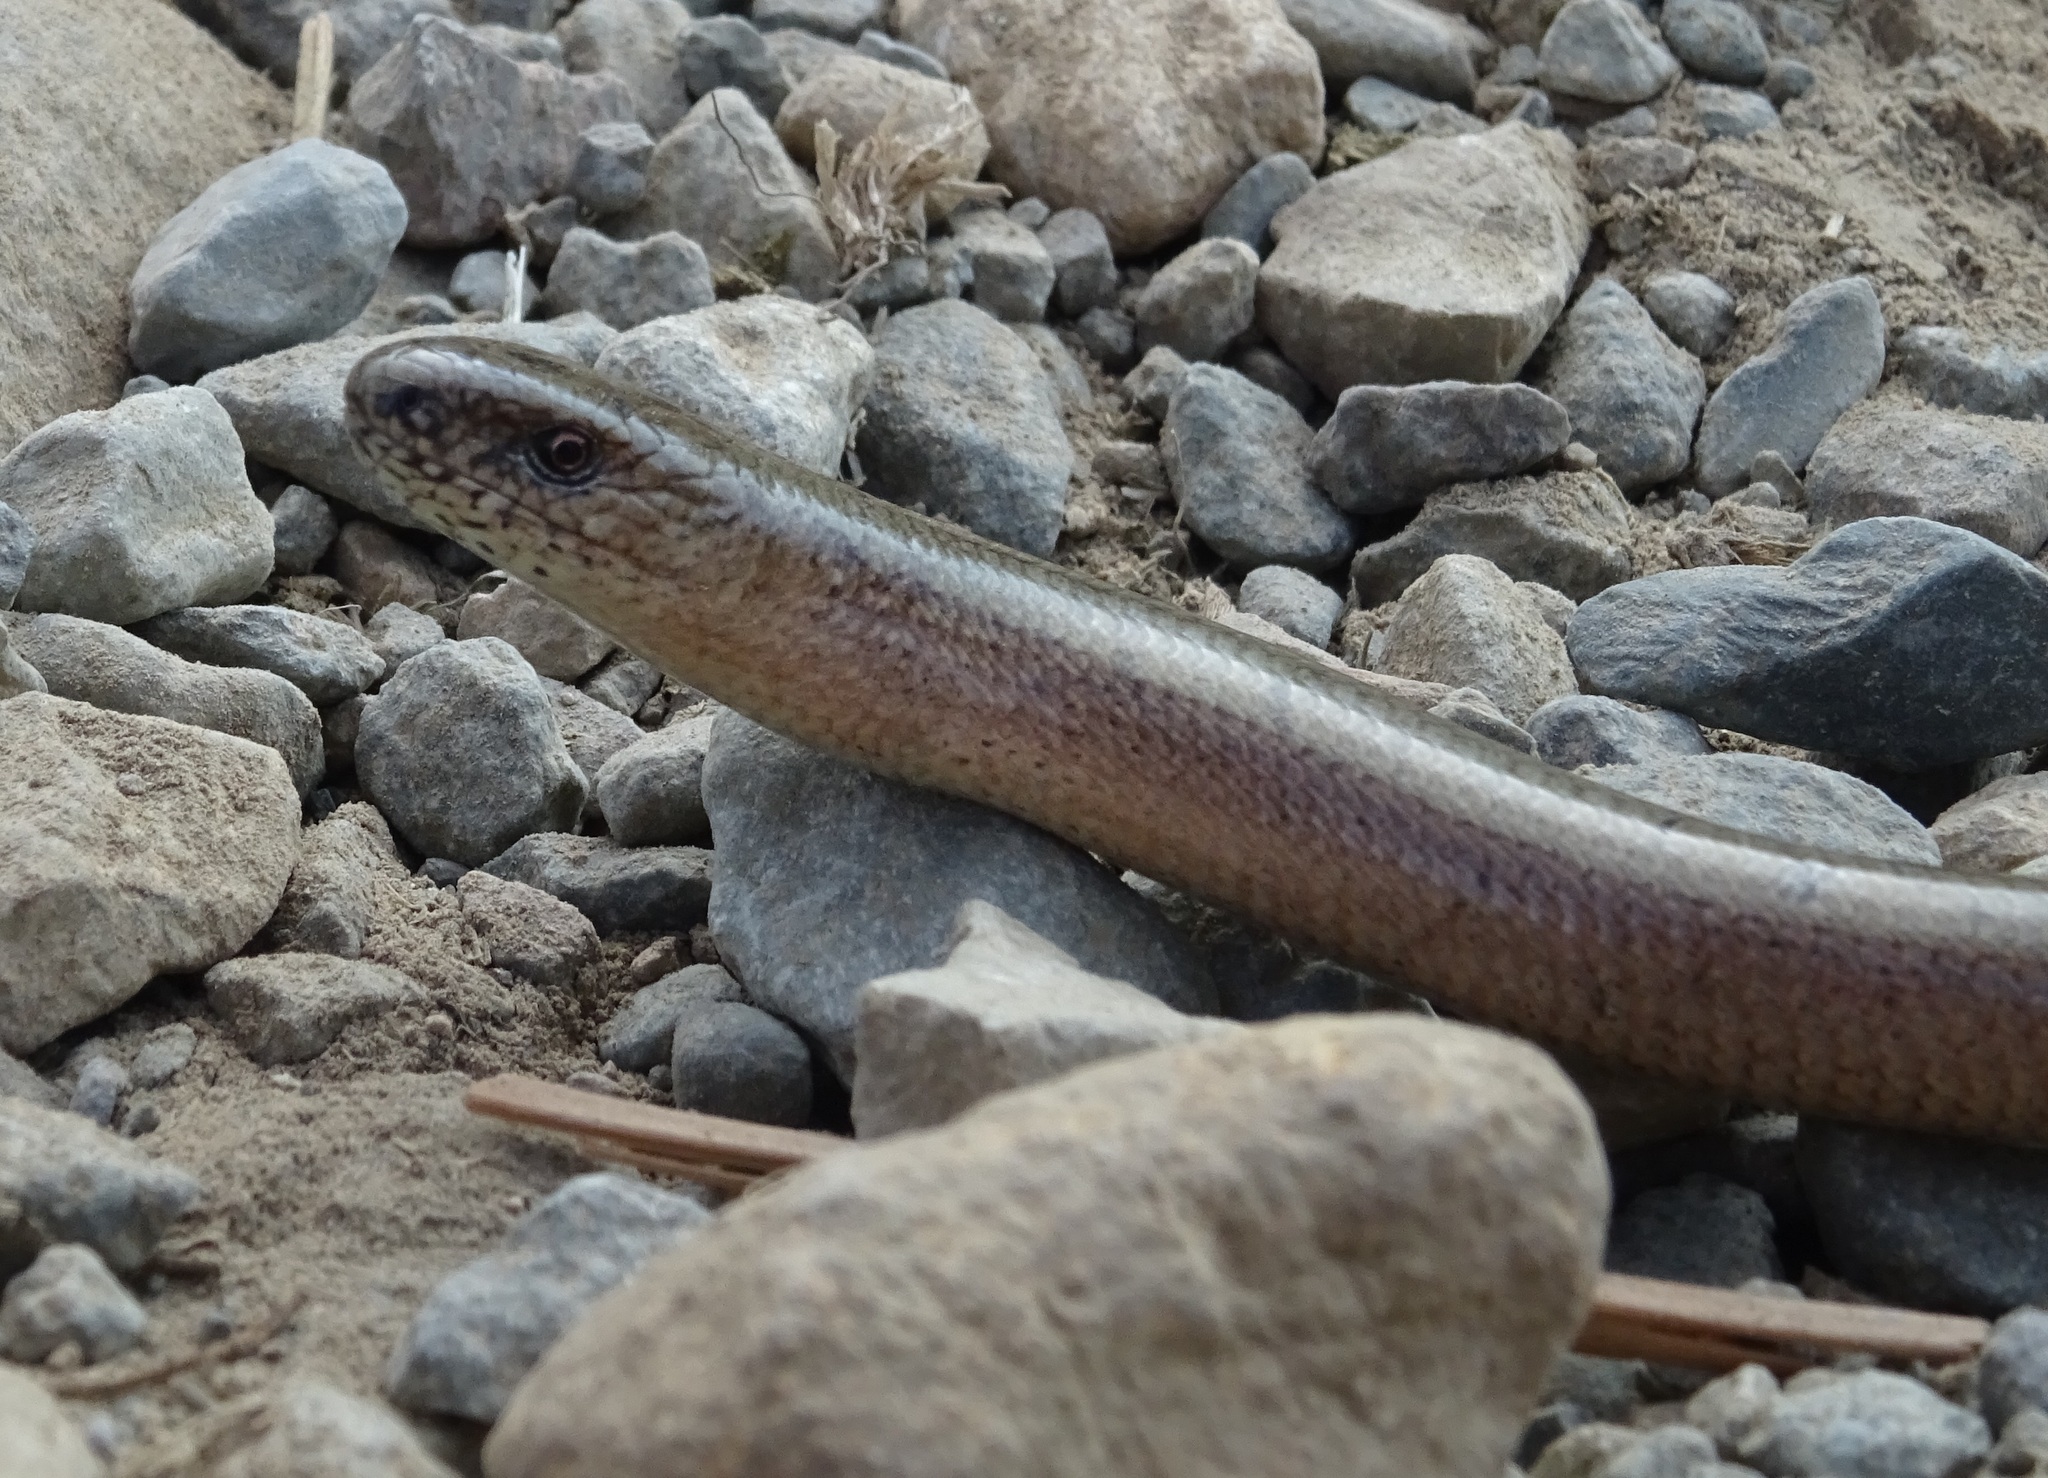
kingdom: Animalia
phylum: Chordata
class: Squamata
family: Anguidae
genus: Anguis
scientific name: Anguis fragilis
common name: Slow worm
